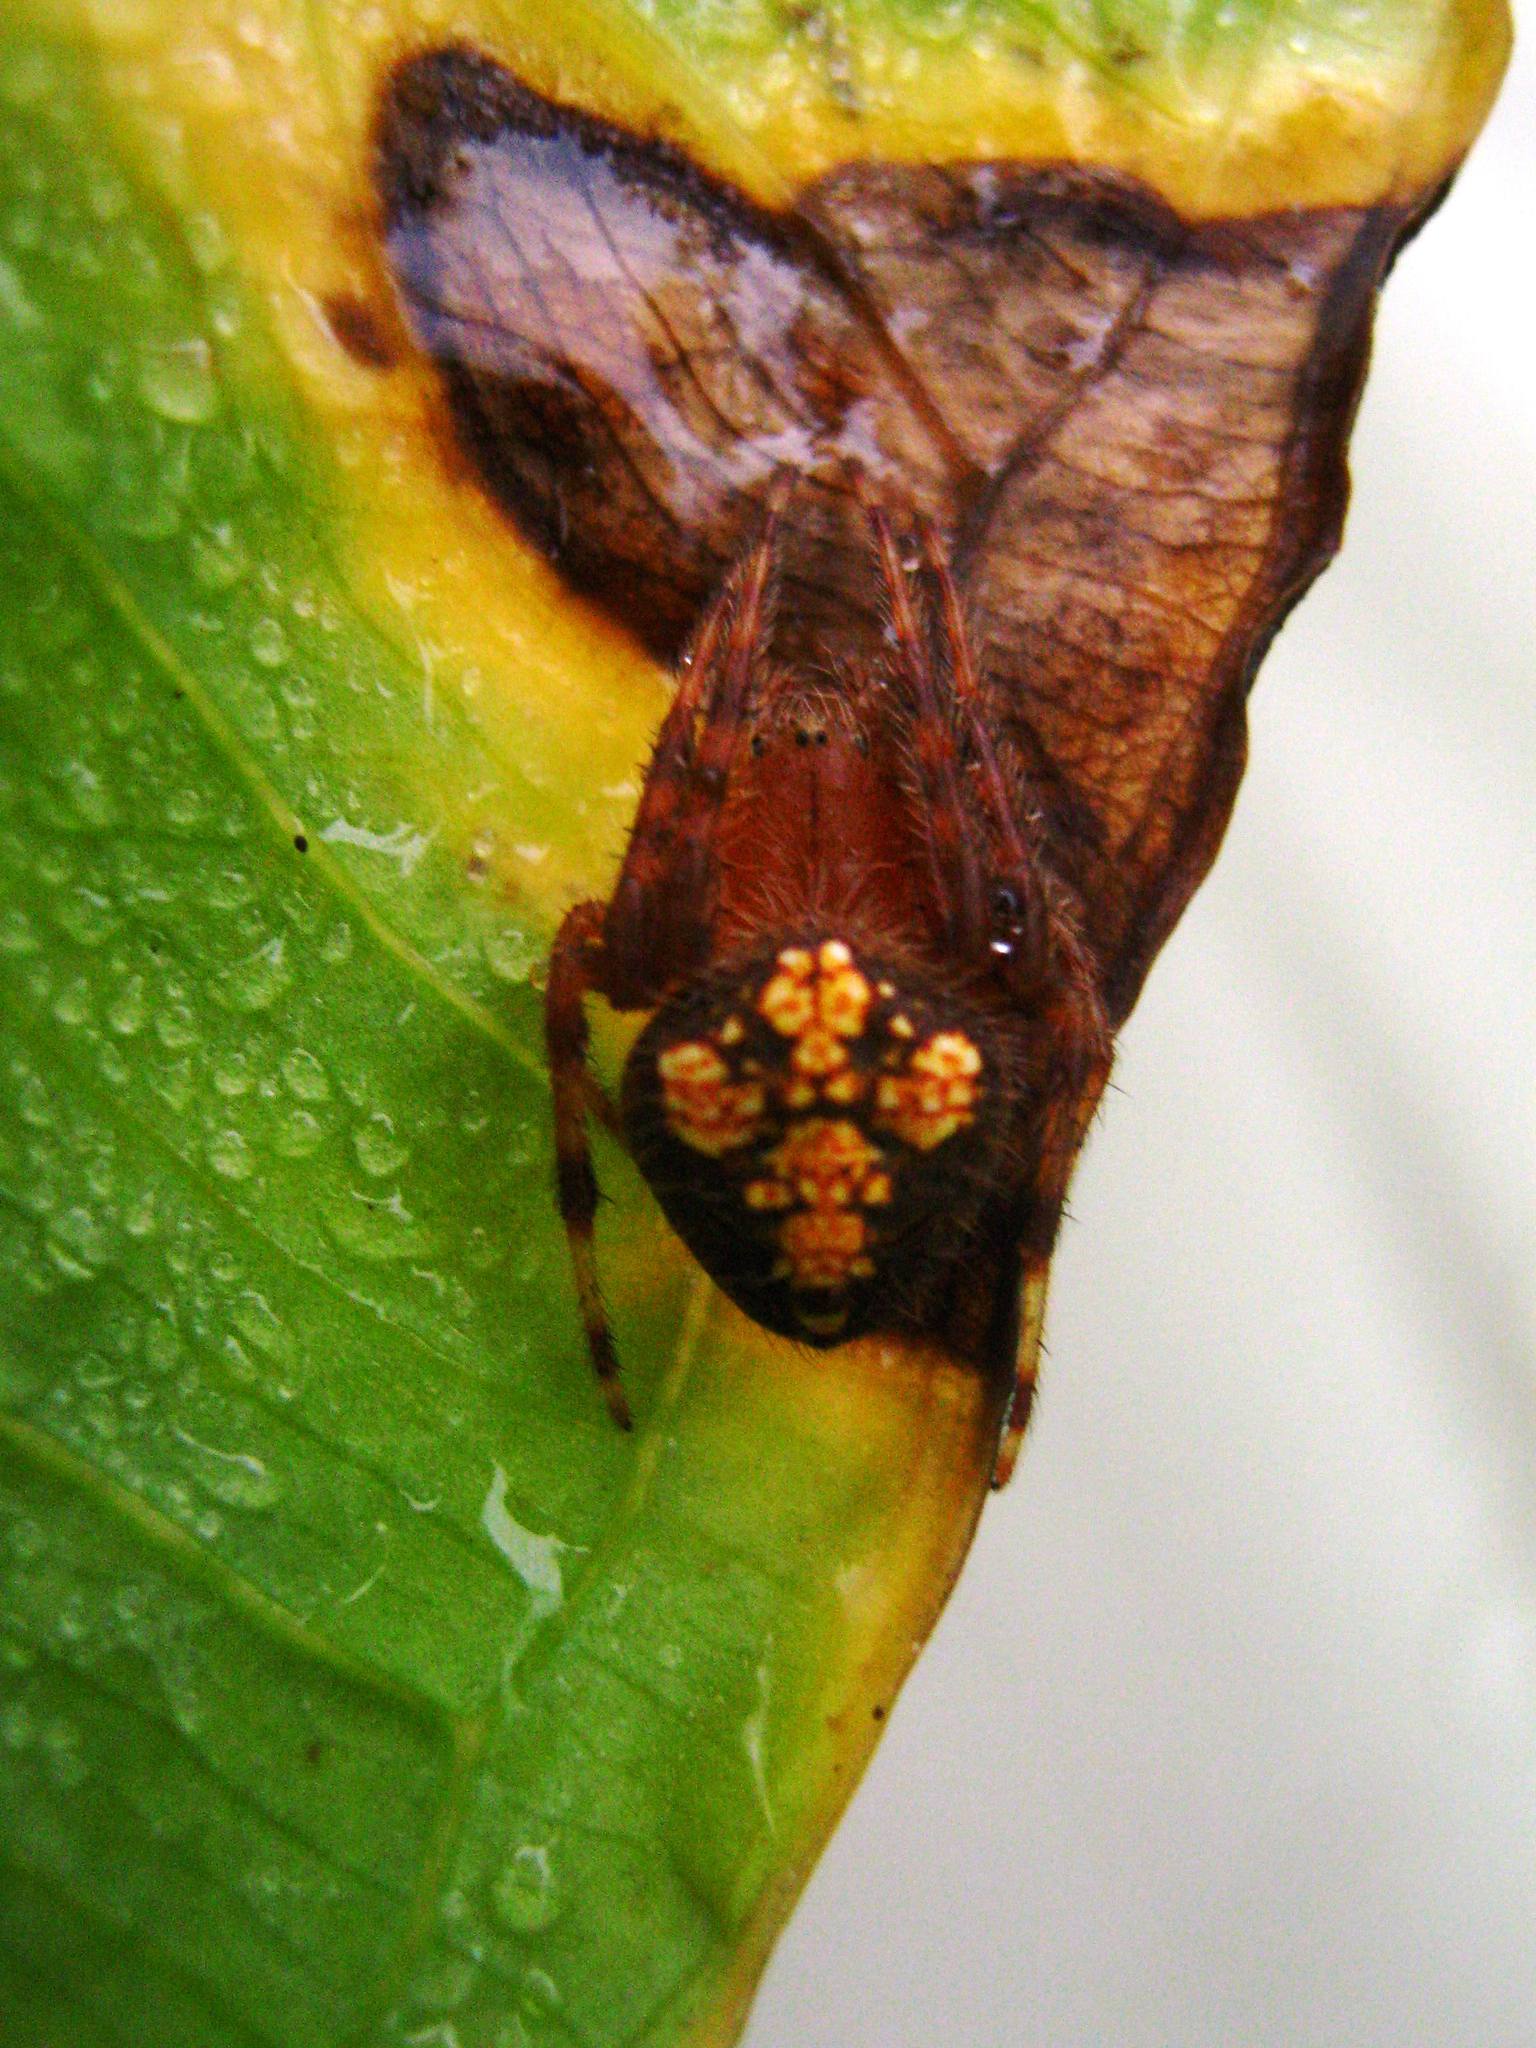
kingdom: Animalia
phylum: Arthropoda
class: Arachnida
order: Araneae
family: Araneidae
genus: Eriophora
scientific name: Eriophora ravilla
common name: Orb weavers
